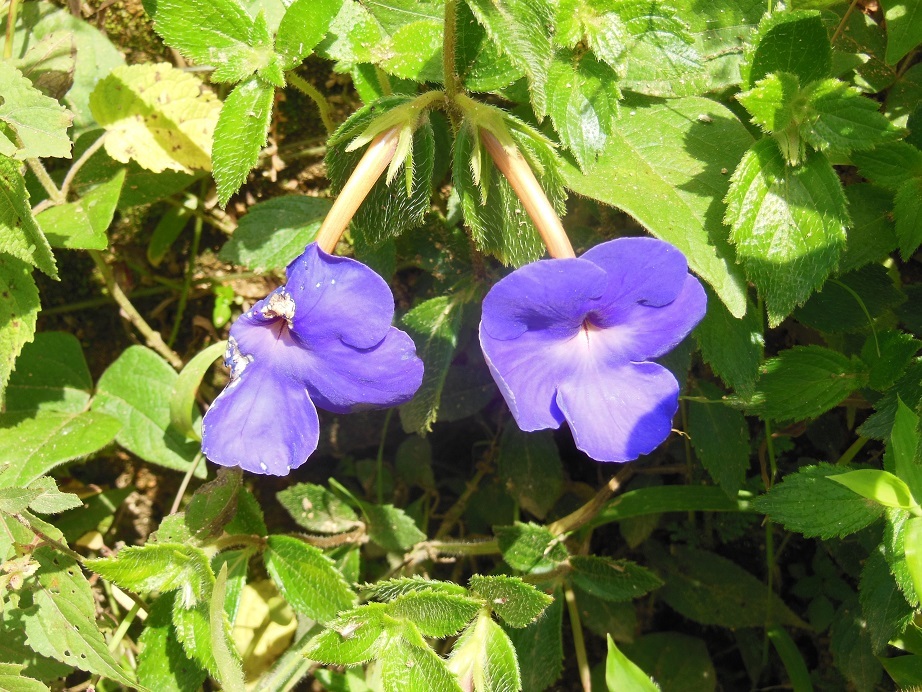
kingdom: Plantae
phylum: Tracheophyta
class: Magnoliopsida
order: Lamiales
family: Gesneriaceae
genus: Achimenes
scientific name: Achimenes longiflora
